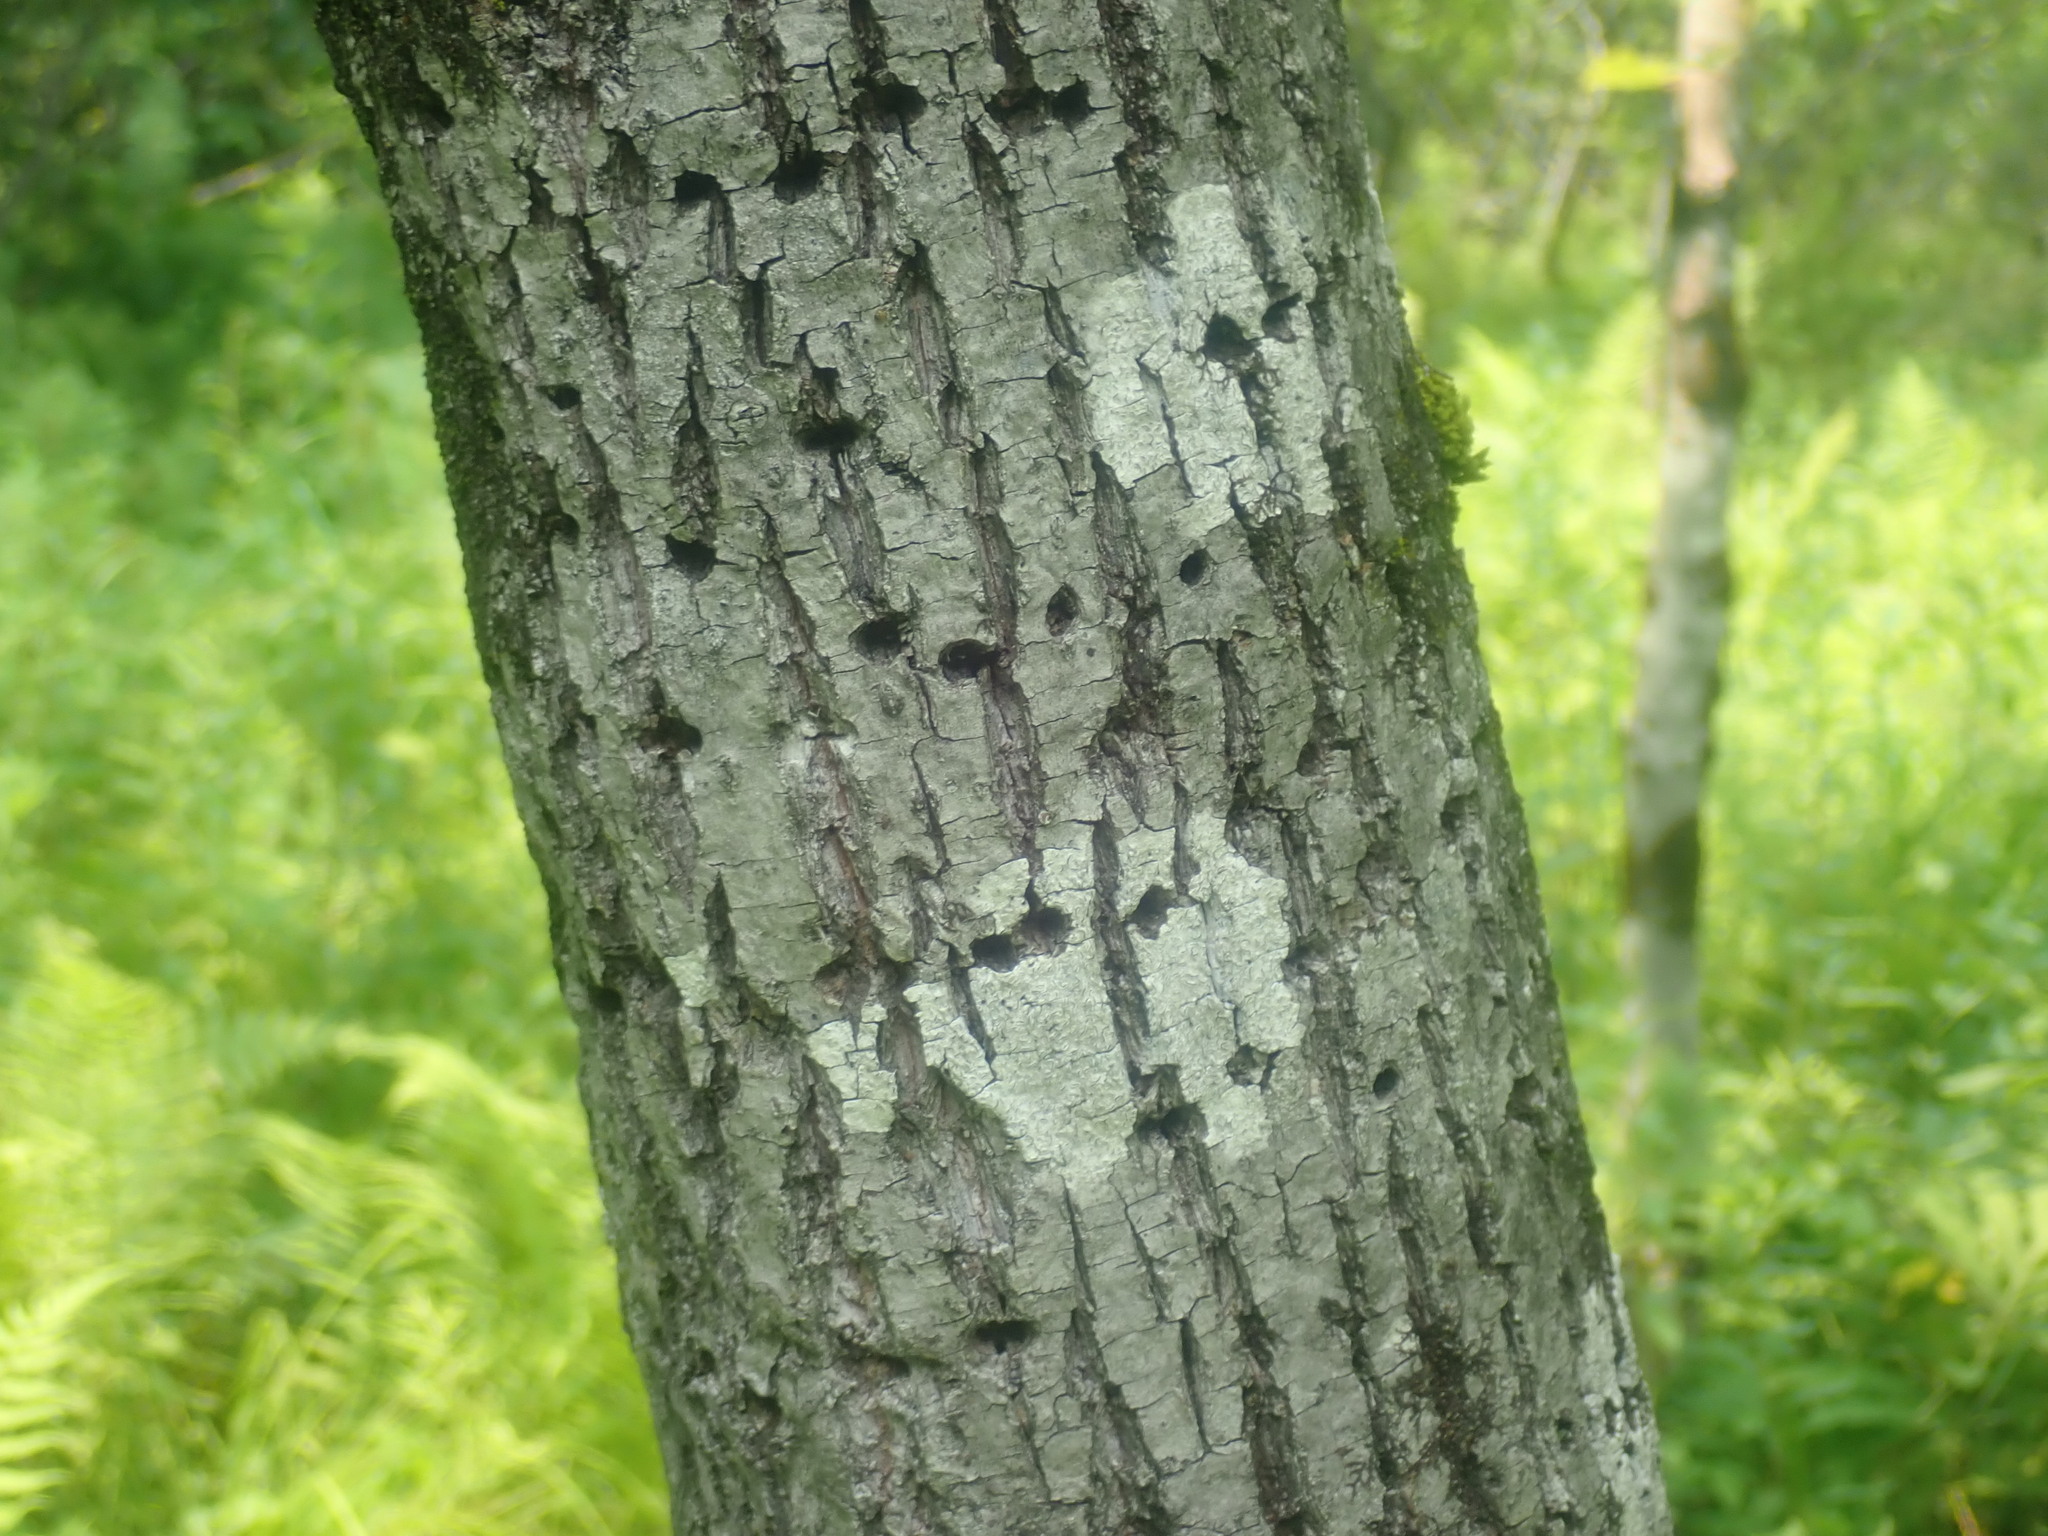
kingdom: Animalia
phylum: Chordata
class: Aves
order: Piciformes
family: Picidae
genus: Sphyrapicus
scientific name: Sphyrapicus varius
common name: Yellow-bellied sapsucker
